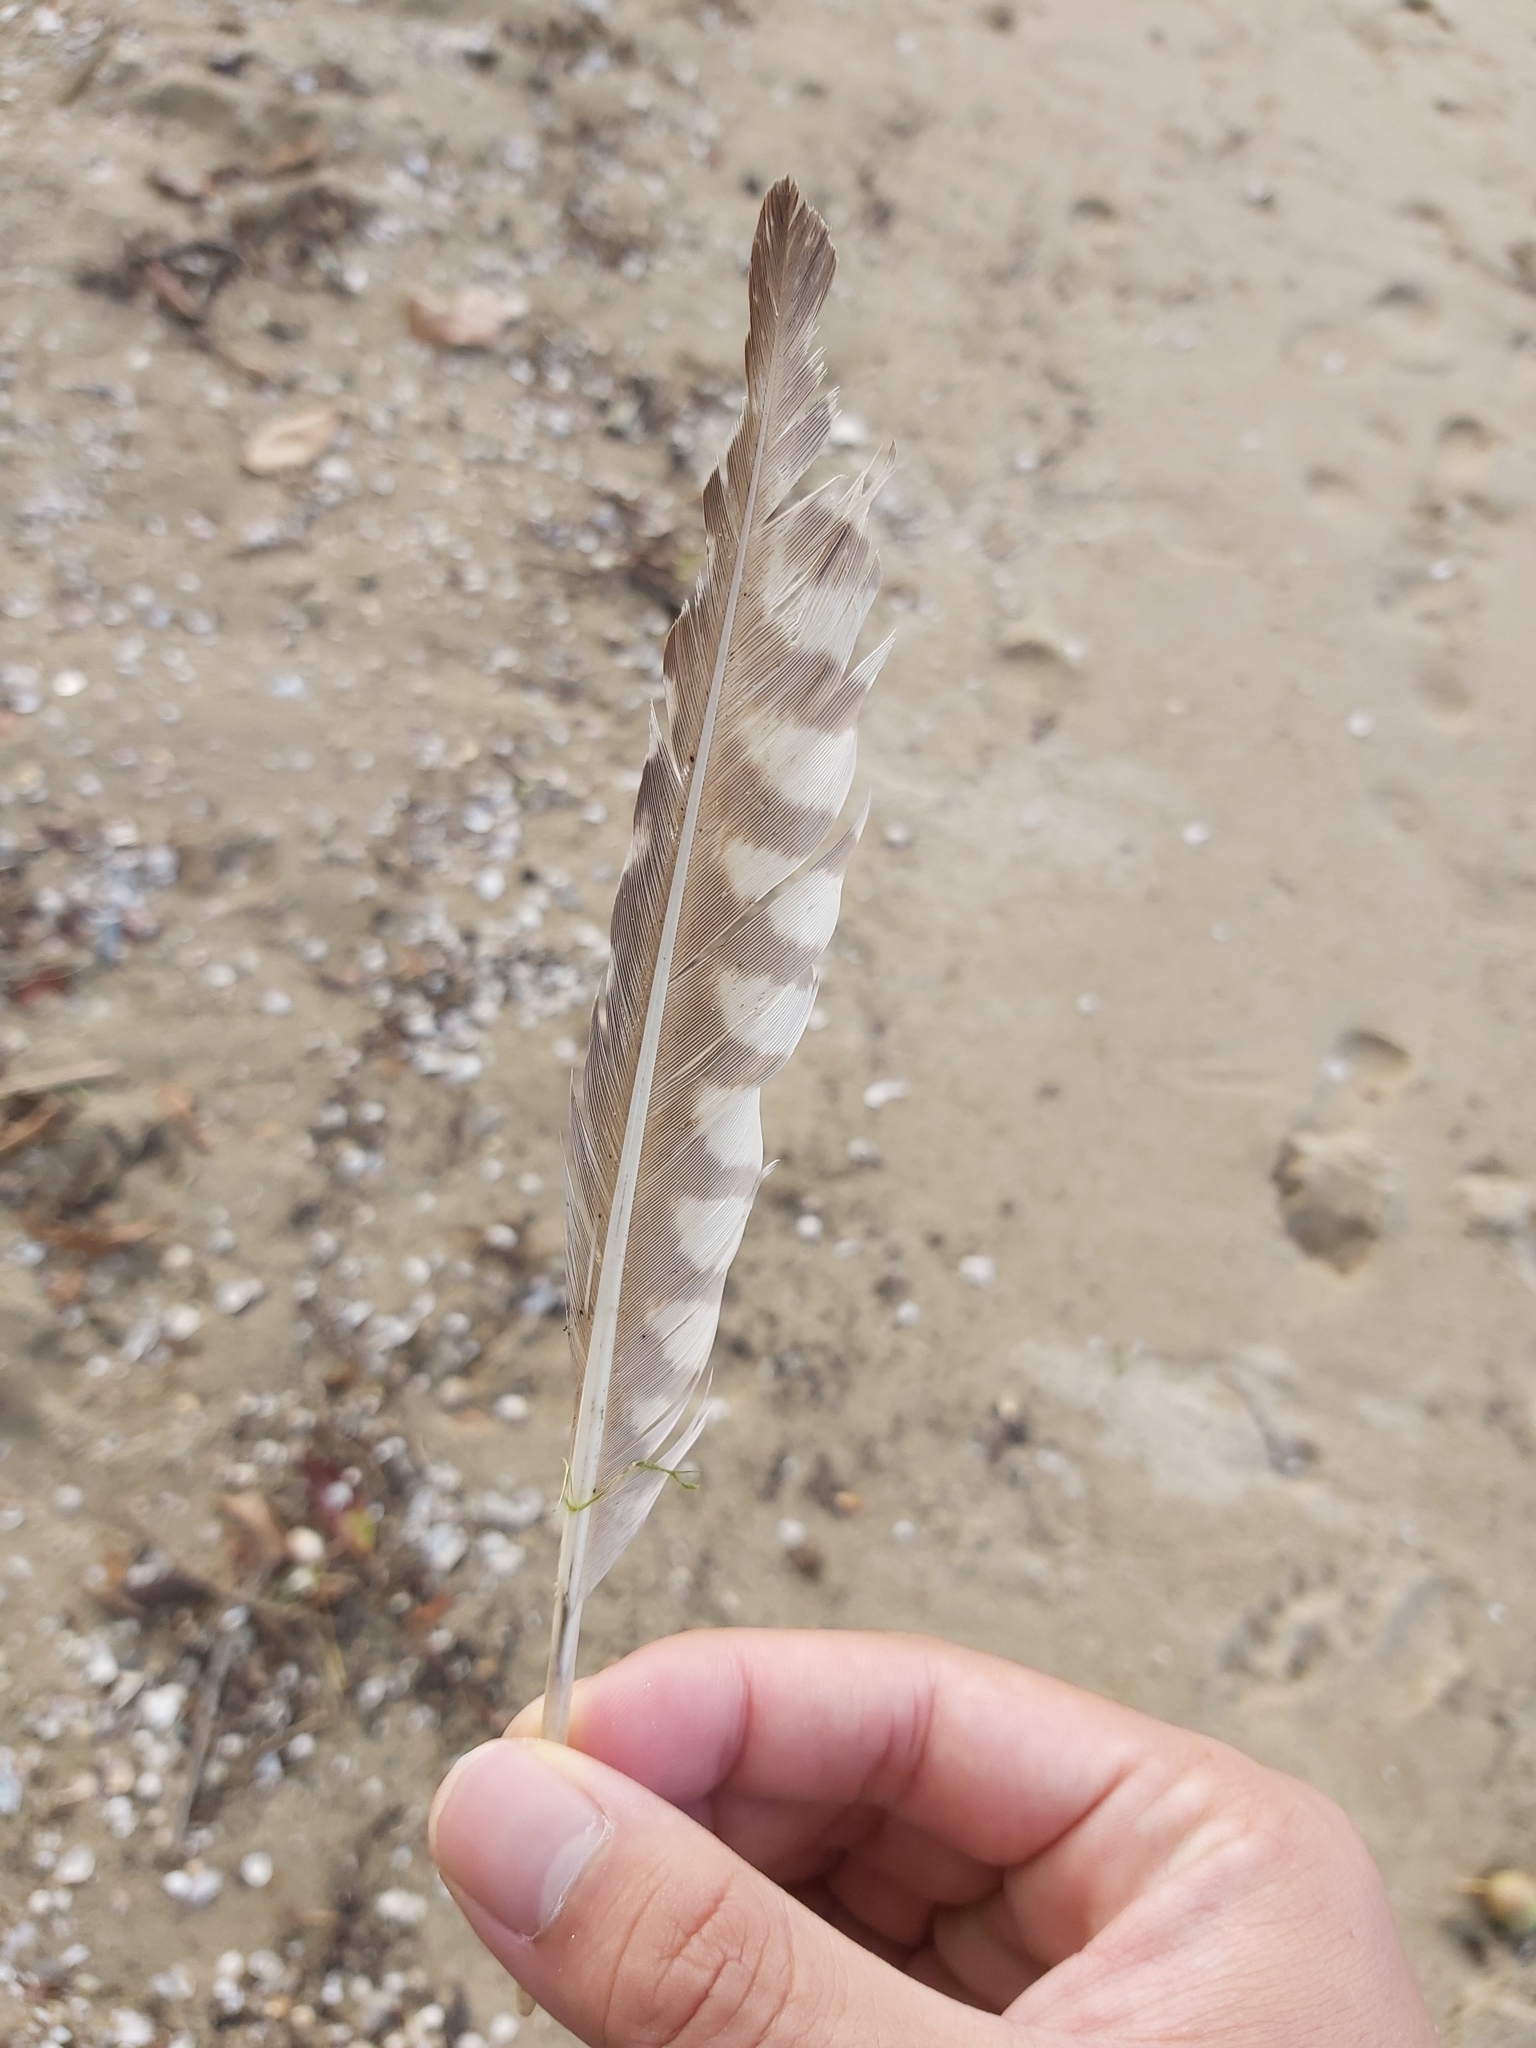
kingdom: Animalia
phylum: Chordata
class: Aves
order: Charadriiformes
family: Scolopacidae
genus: Numenius
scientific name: Numenius madagascariensis
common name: Far eastern curlew
